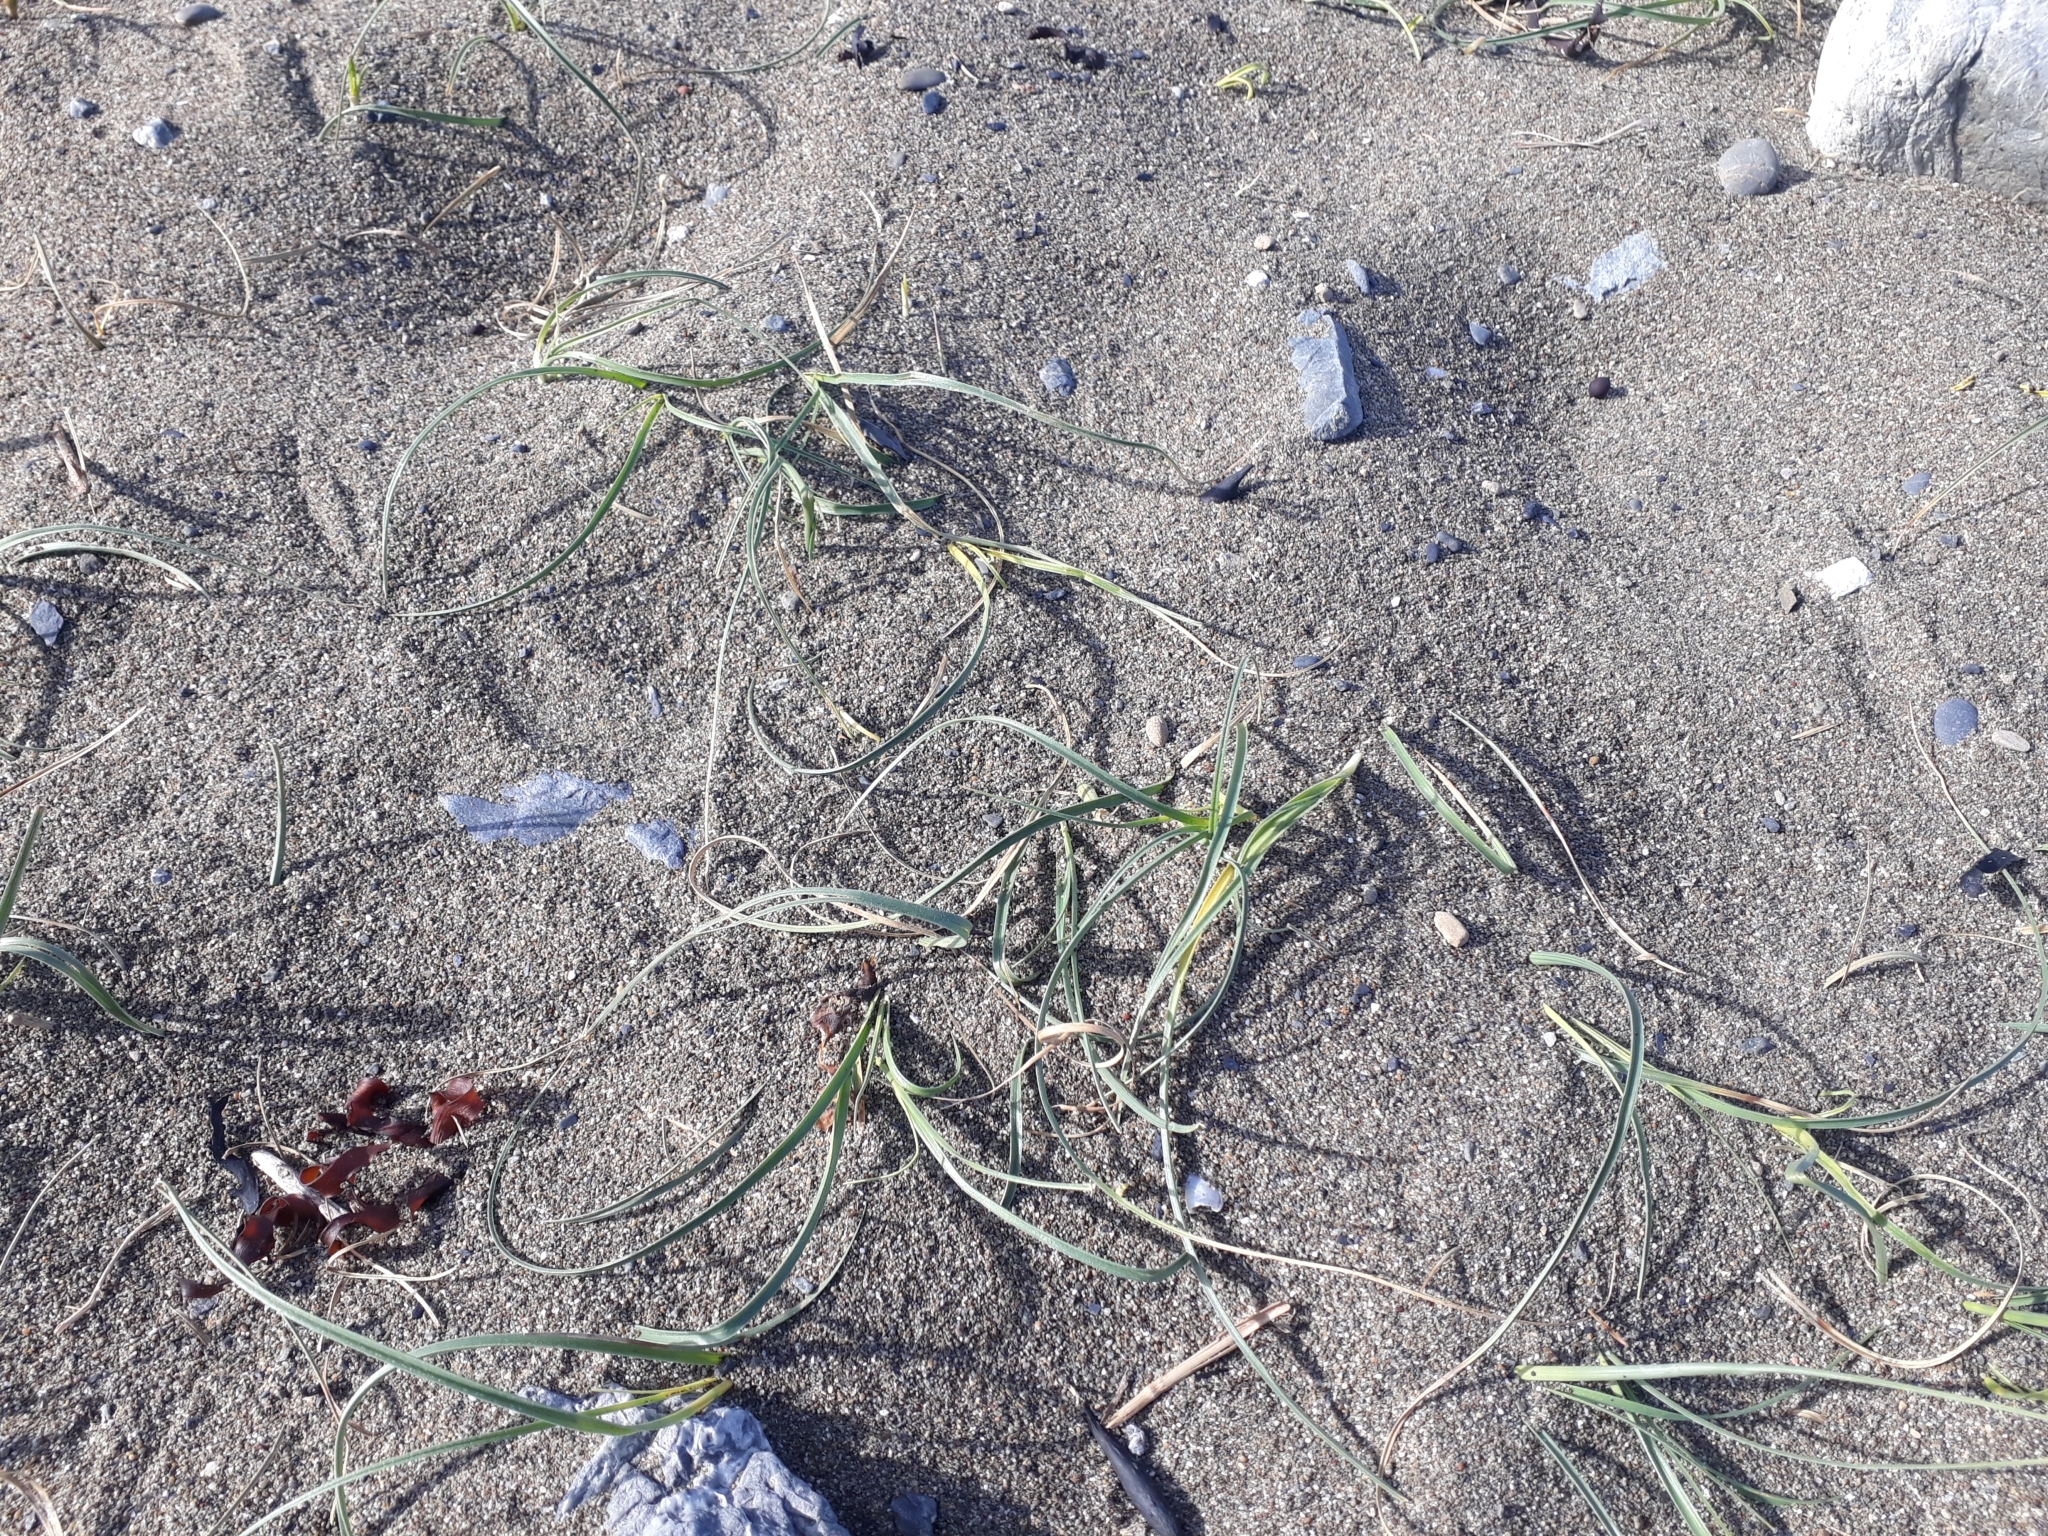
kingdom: Plantae
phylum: Tracheophyta
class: Liliopsida
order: Poales
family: Cyperaceae
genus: Carex
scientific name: Carex pumila
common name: Dwarf sedge
